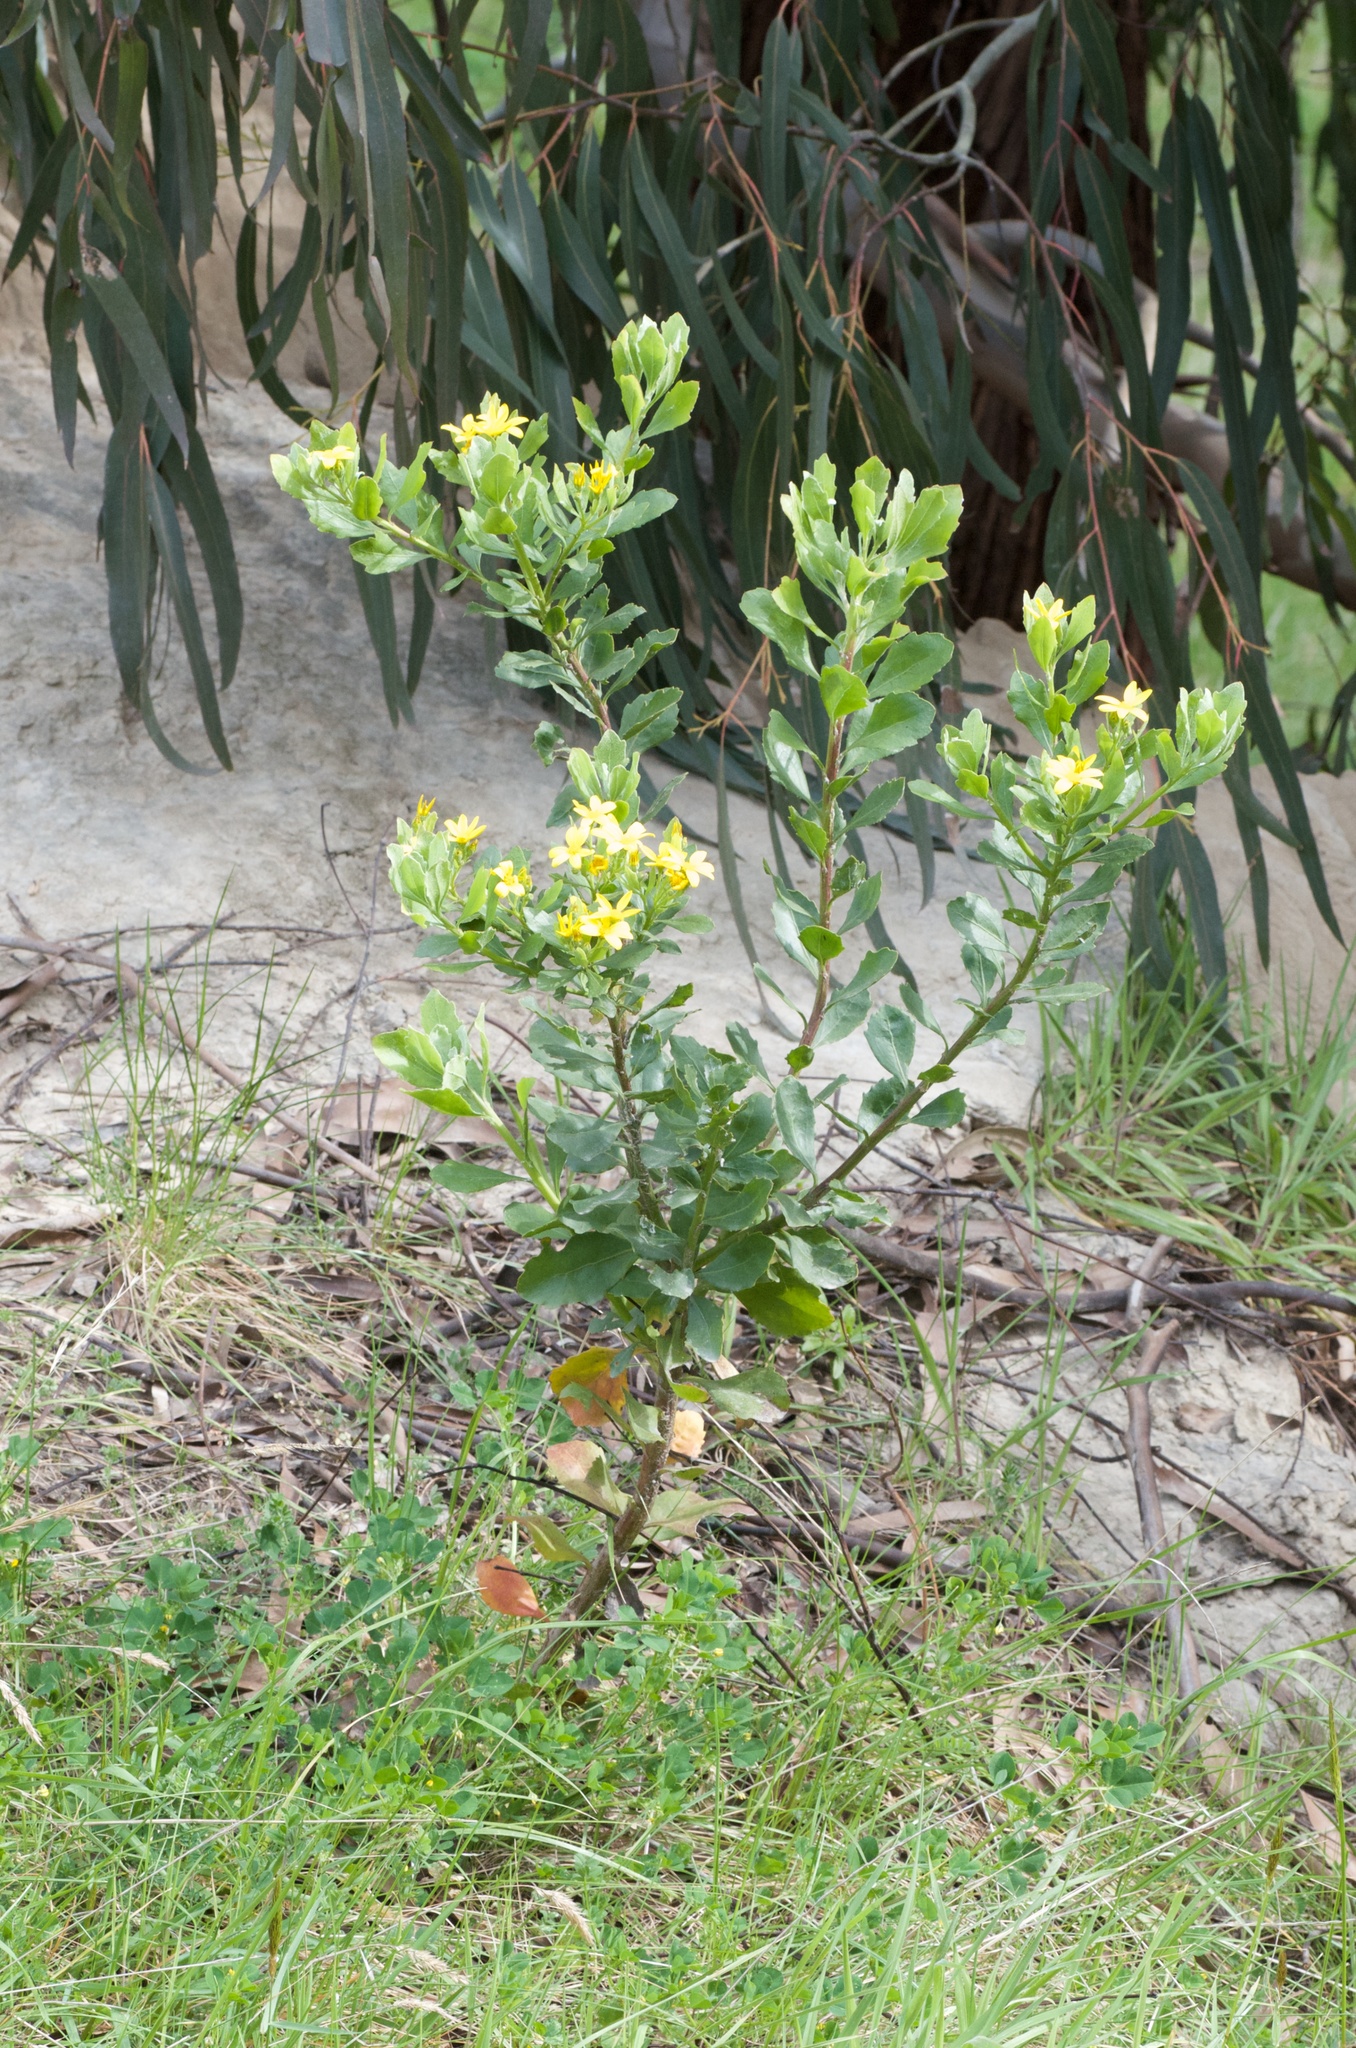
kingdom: Plantae
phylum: Tracheophyta
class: Magnoliopsida
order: Asterales
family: Asteraceae
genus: Osteospermum
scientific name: Osteospermum moniliferum
